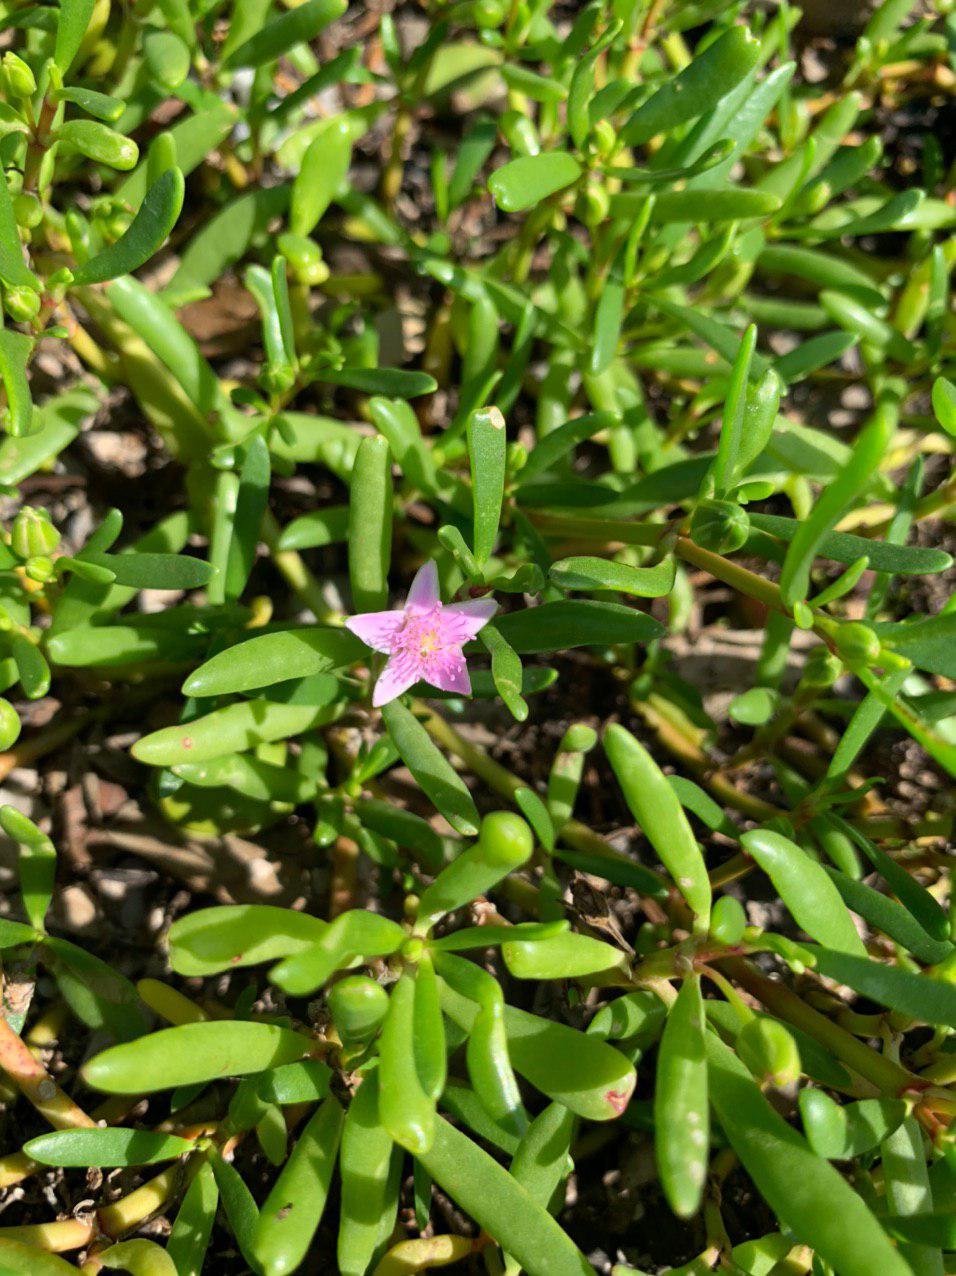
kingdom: Plantae
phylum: Tracheophyta
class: Magnoliopsida
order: Caryophyllales
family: Aizoaceae
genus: Sesuvium
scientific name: Sesuvium portulacastrum
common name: Sea-purslane
